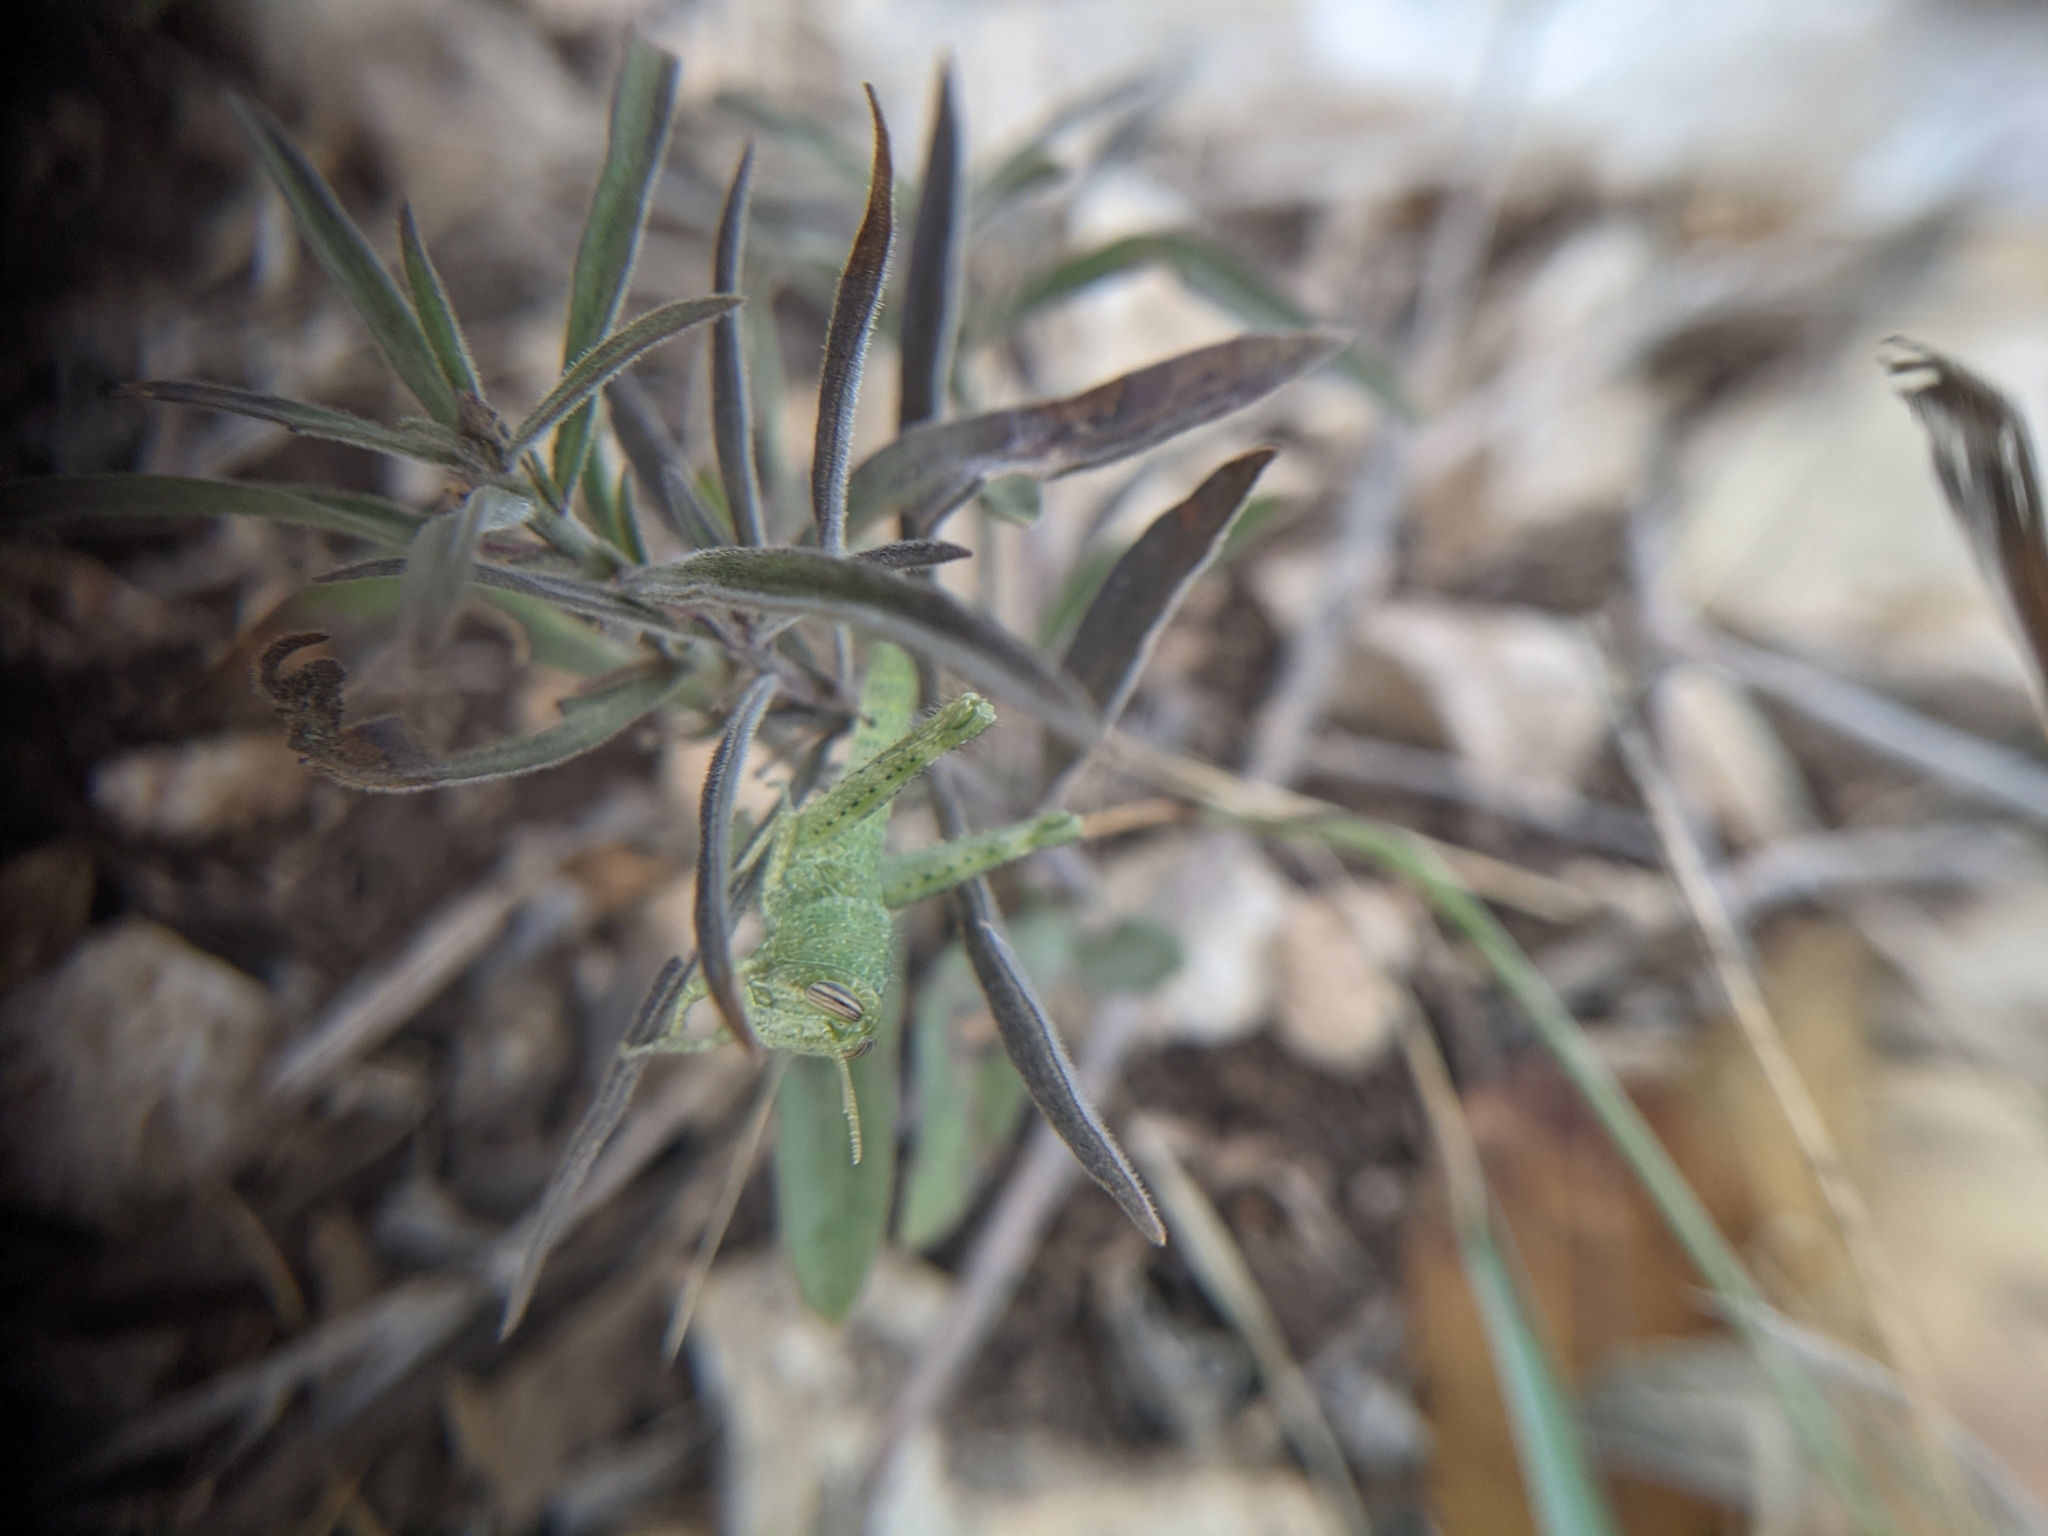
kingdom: Animalia
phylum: Arthropoda
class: Insecta
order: Orthoptera
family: Acrididae
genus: Schistocerca
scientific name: Schistocerca nitens
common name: Vagrant grasshopper
